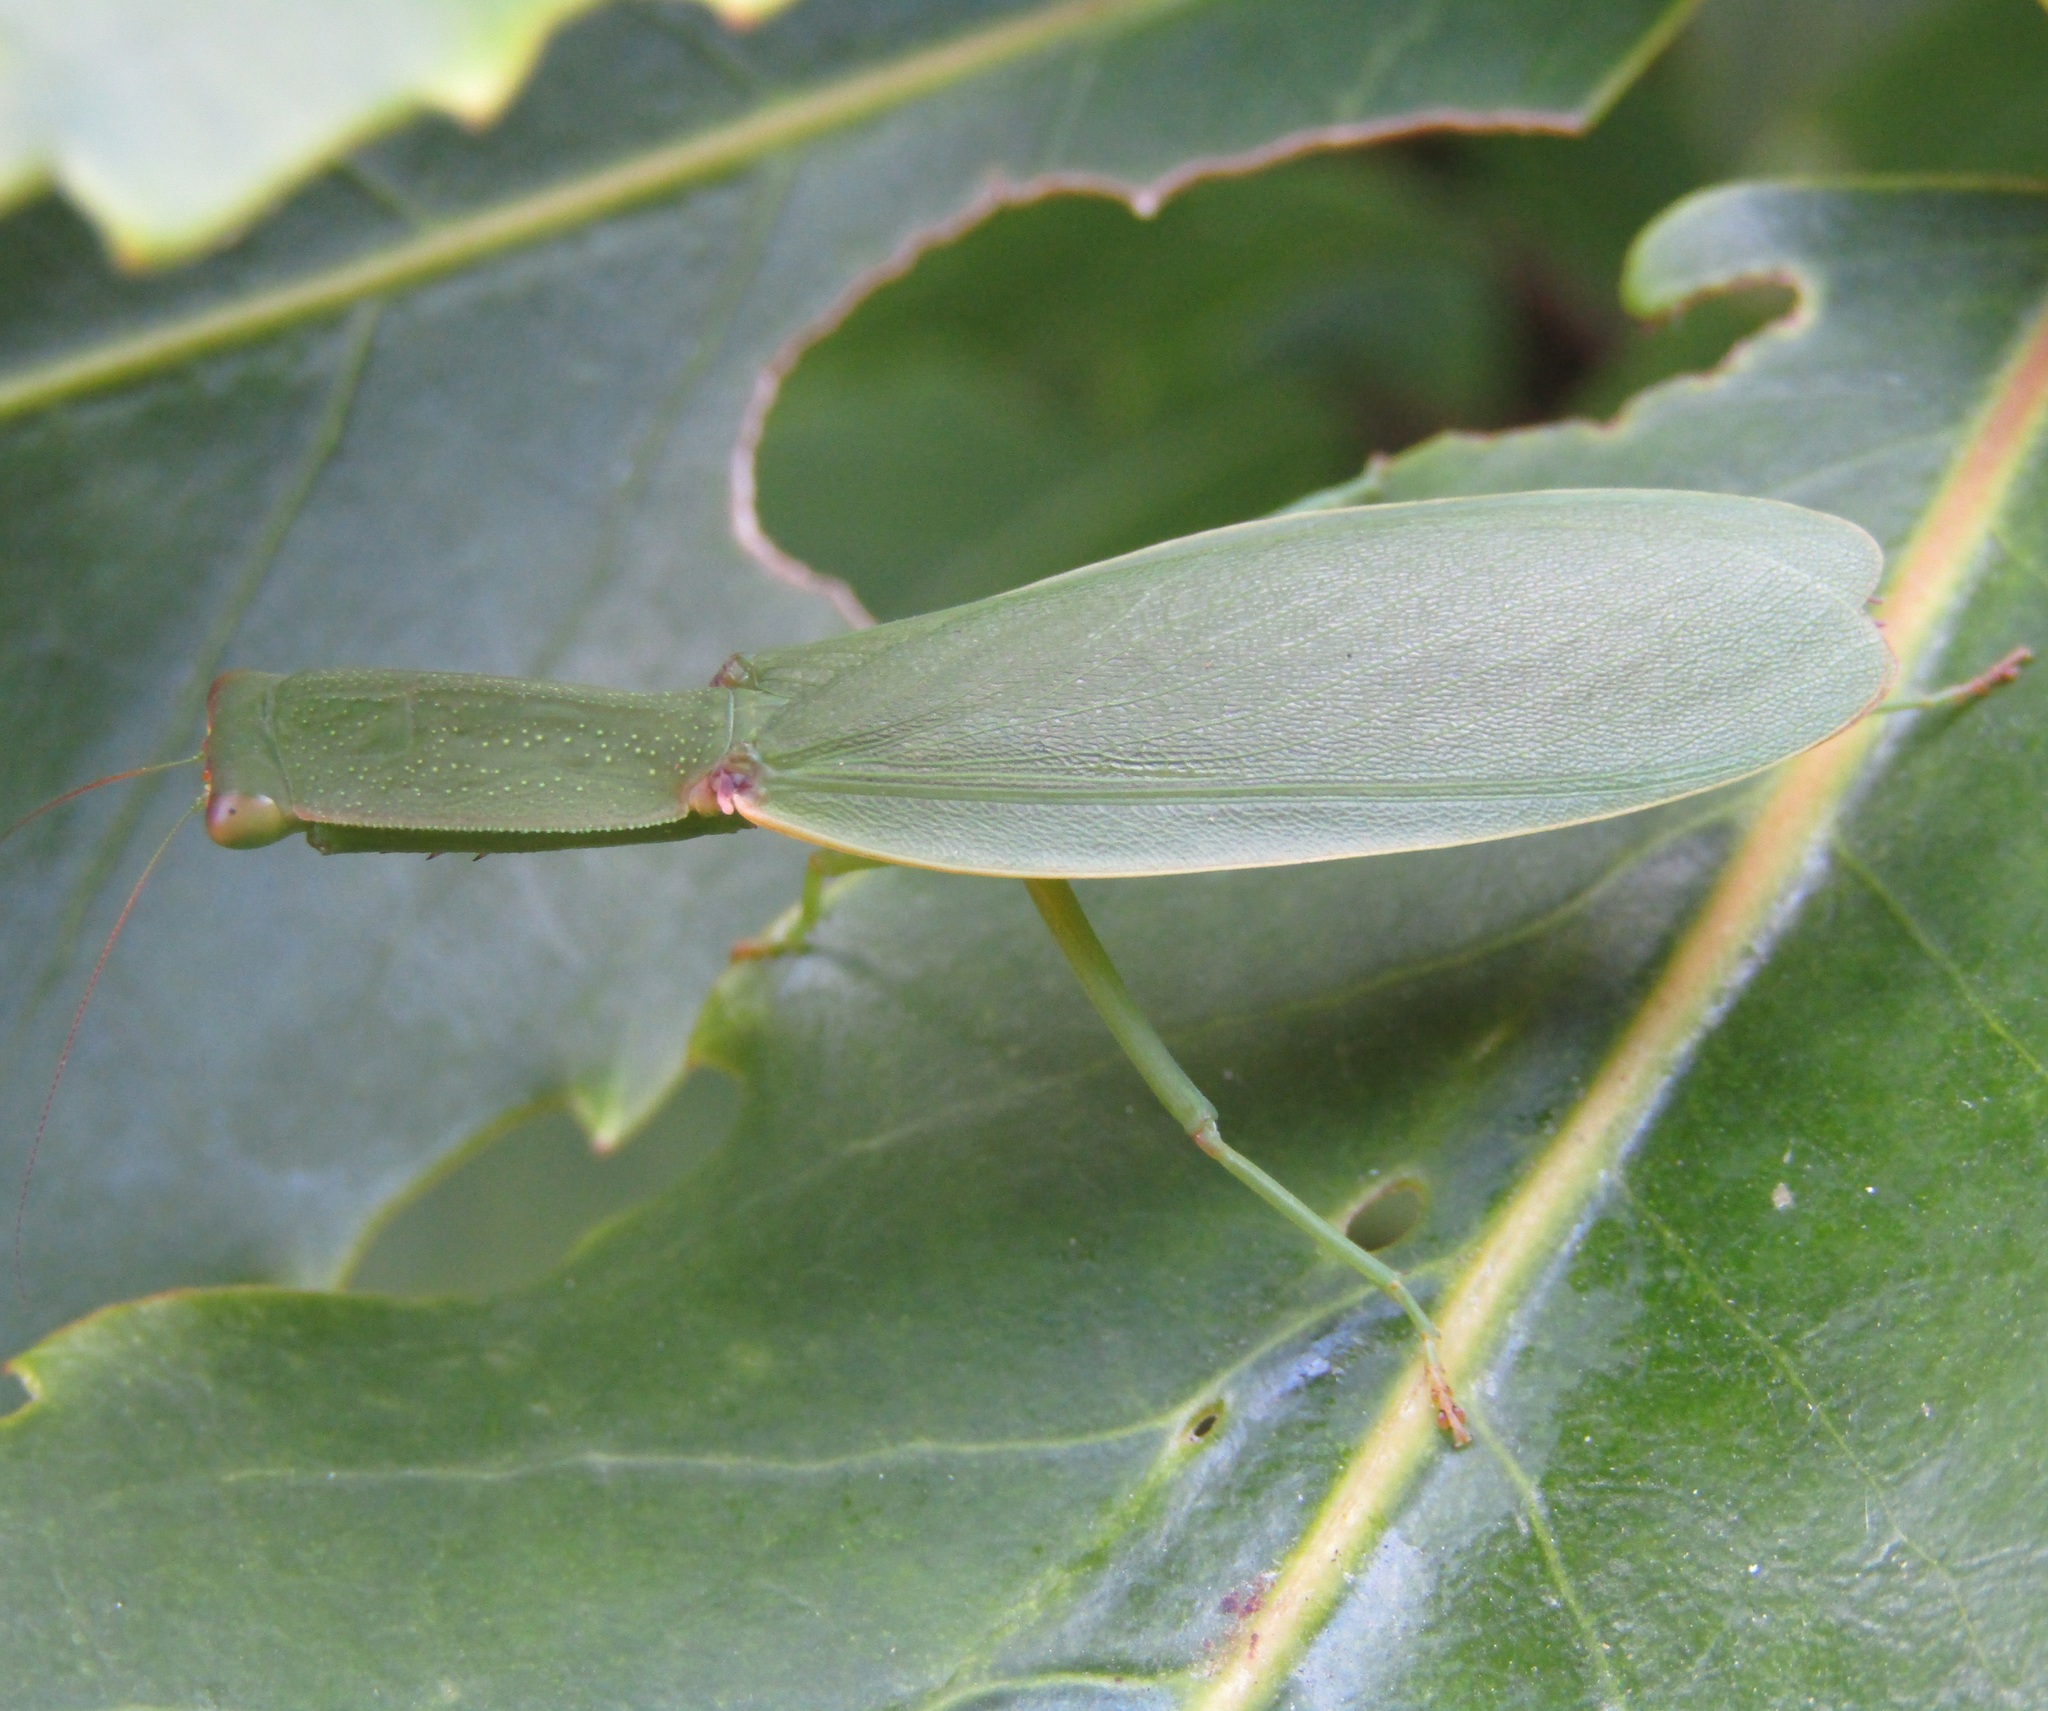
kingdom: Animalia
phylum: Arthropoda
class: Insecta
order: Mantodea
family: Mantidae
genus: Orthodera
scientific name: Orthodera novaezealandiae
